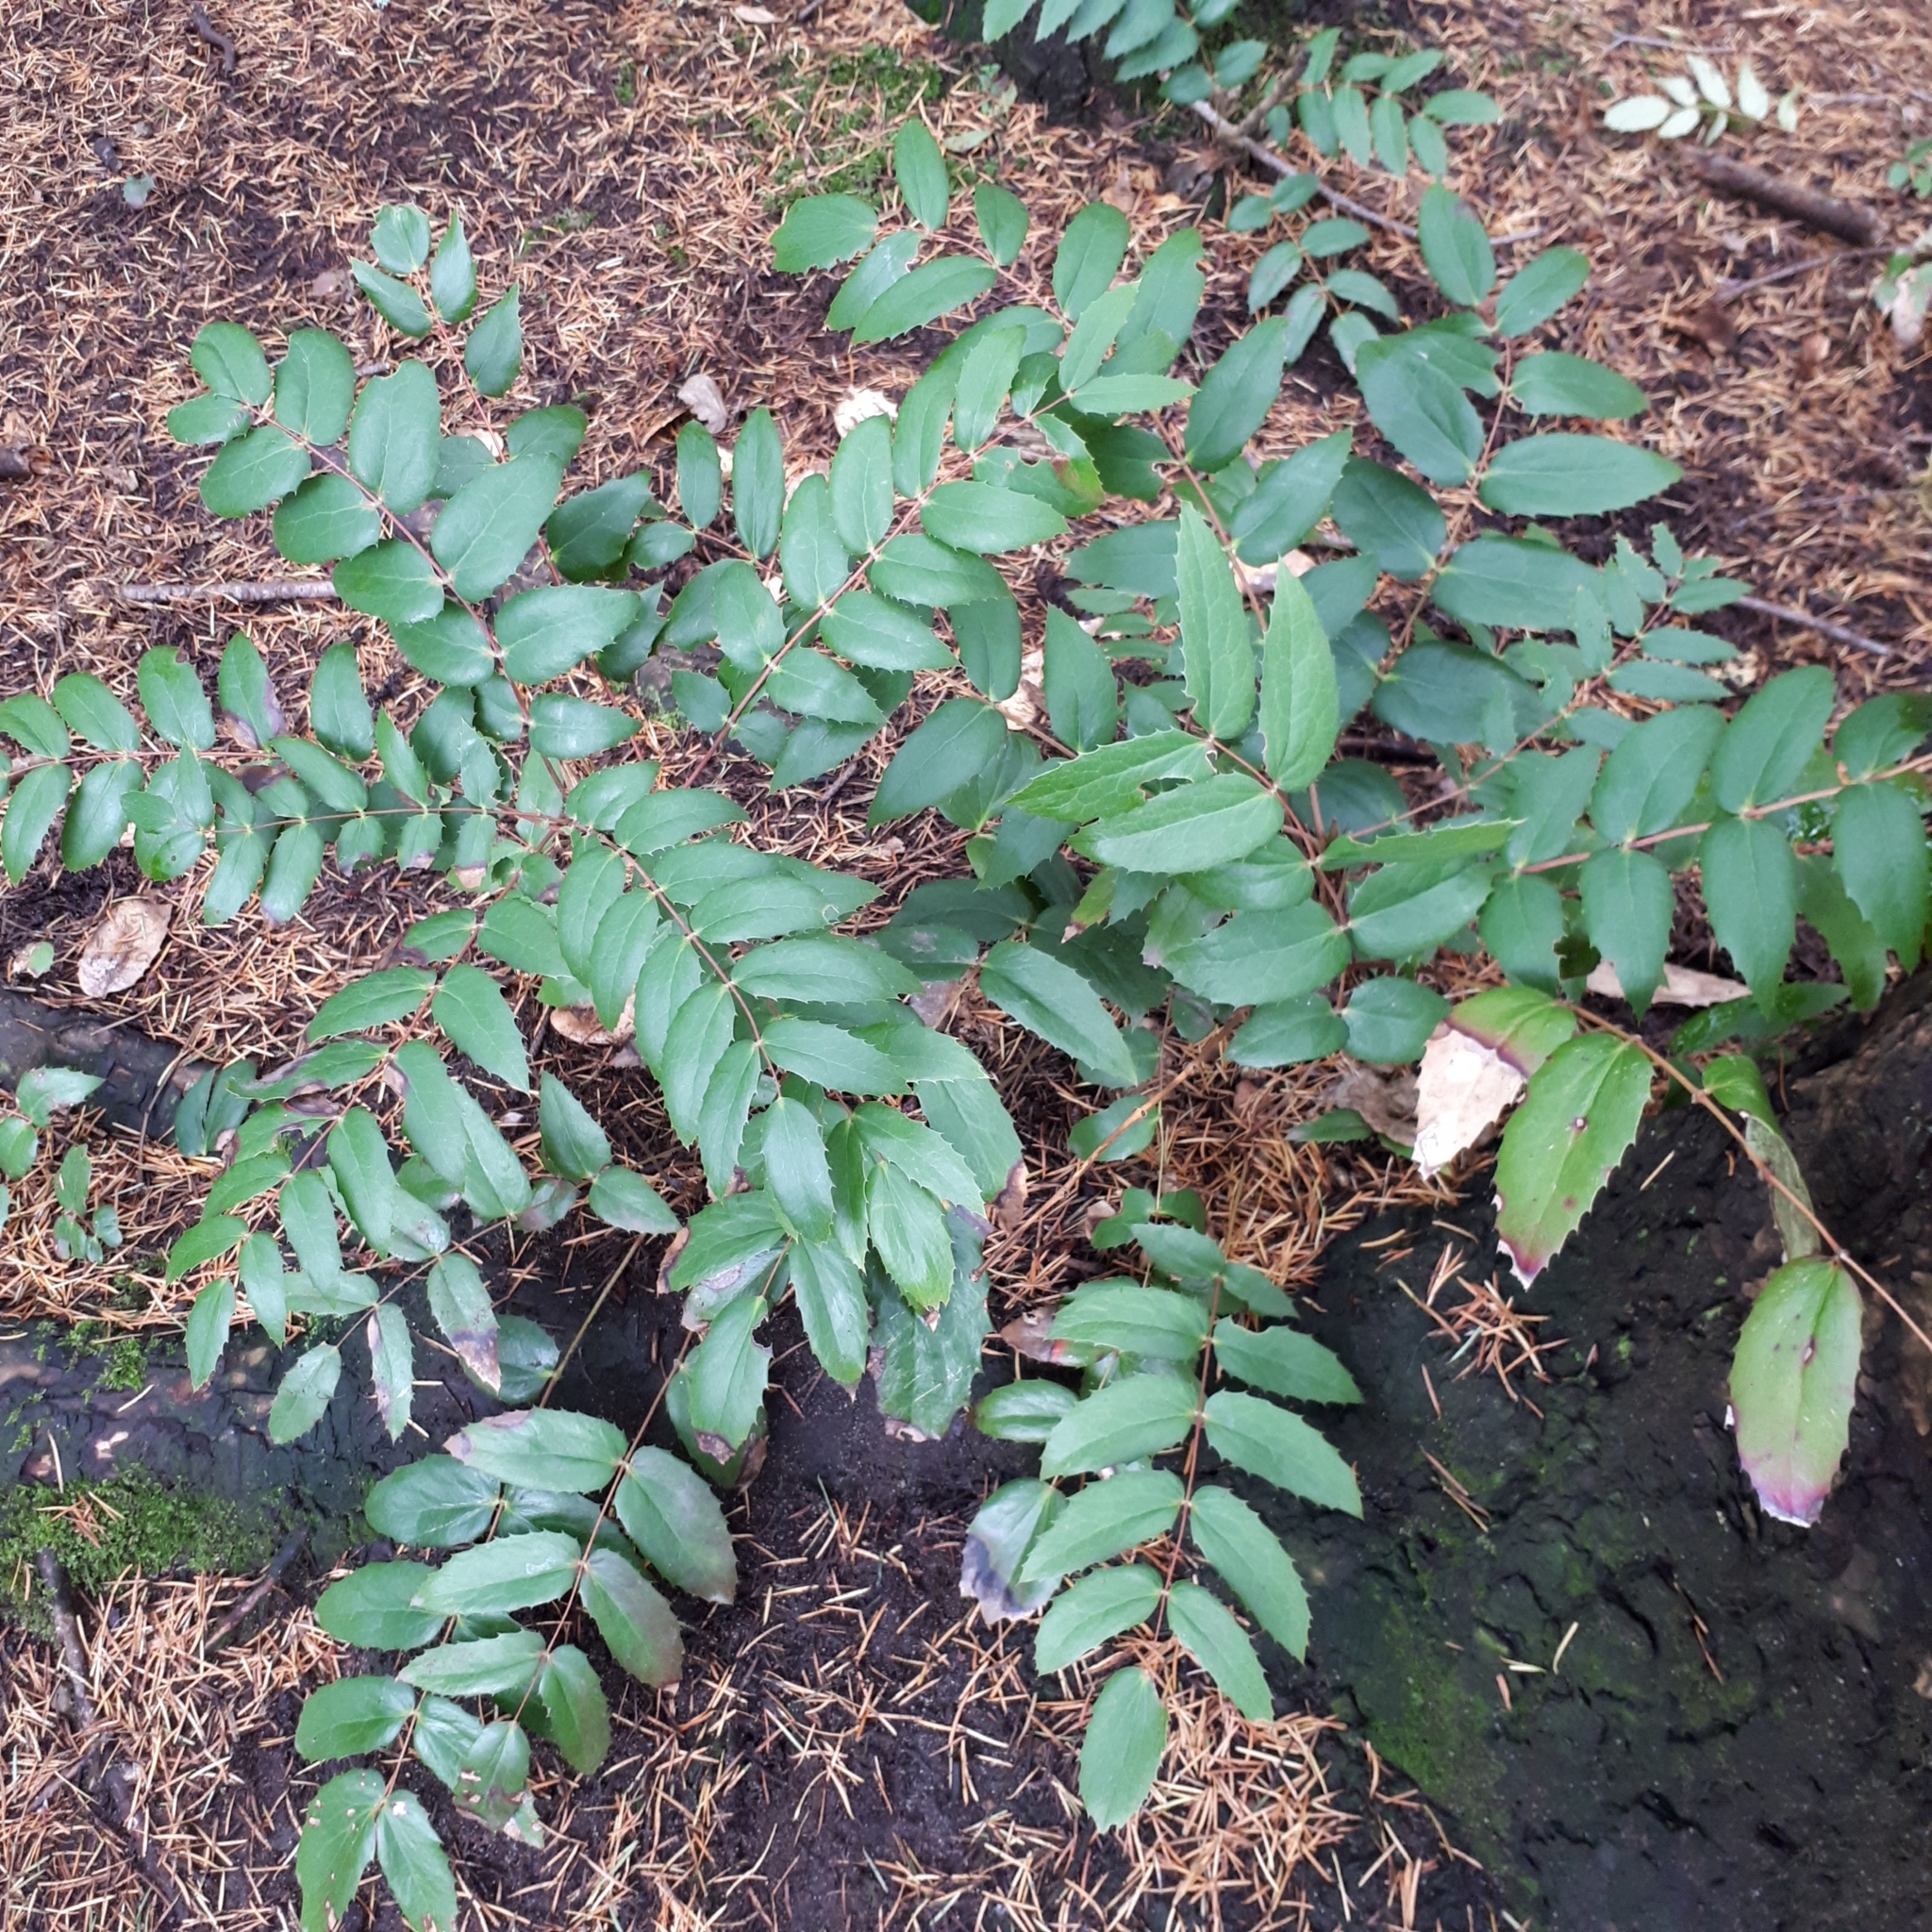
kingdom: Plantae
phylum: Tracheophyta
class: Magnoliopsida
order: Ranunculales
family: Berberidaceae
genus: Mahonia
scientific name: Mahonia nervosa
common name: Cascade oregon-grape
